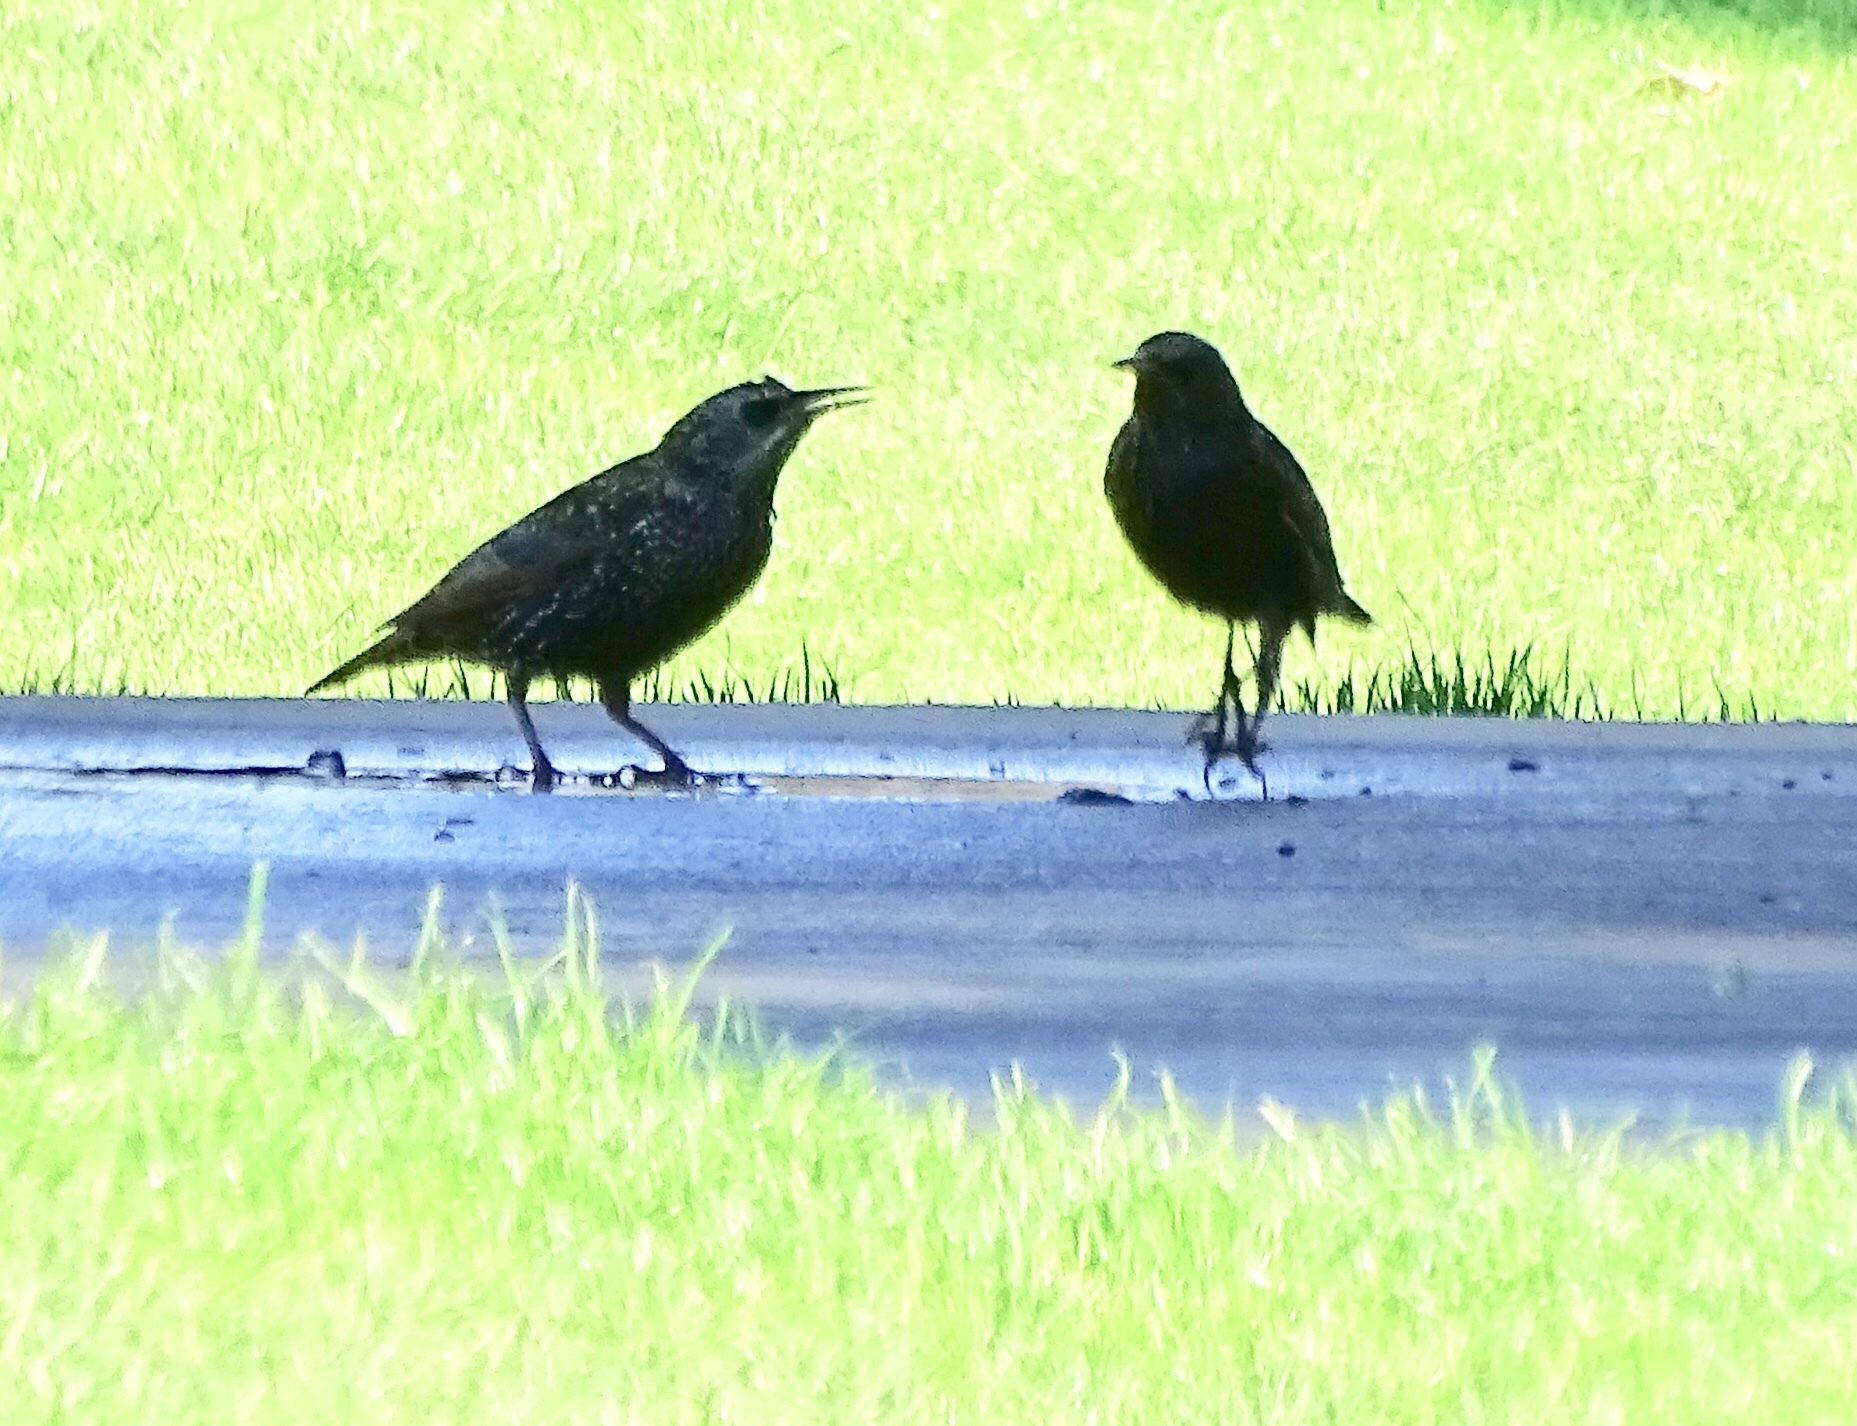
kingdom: Animalia
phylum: Chordata
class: Aves
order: Passeriformes
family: Sturnidae
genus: Sturnus
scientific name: Sturnus vulgaris
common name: Common starling
